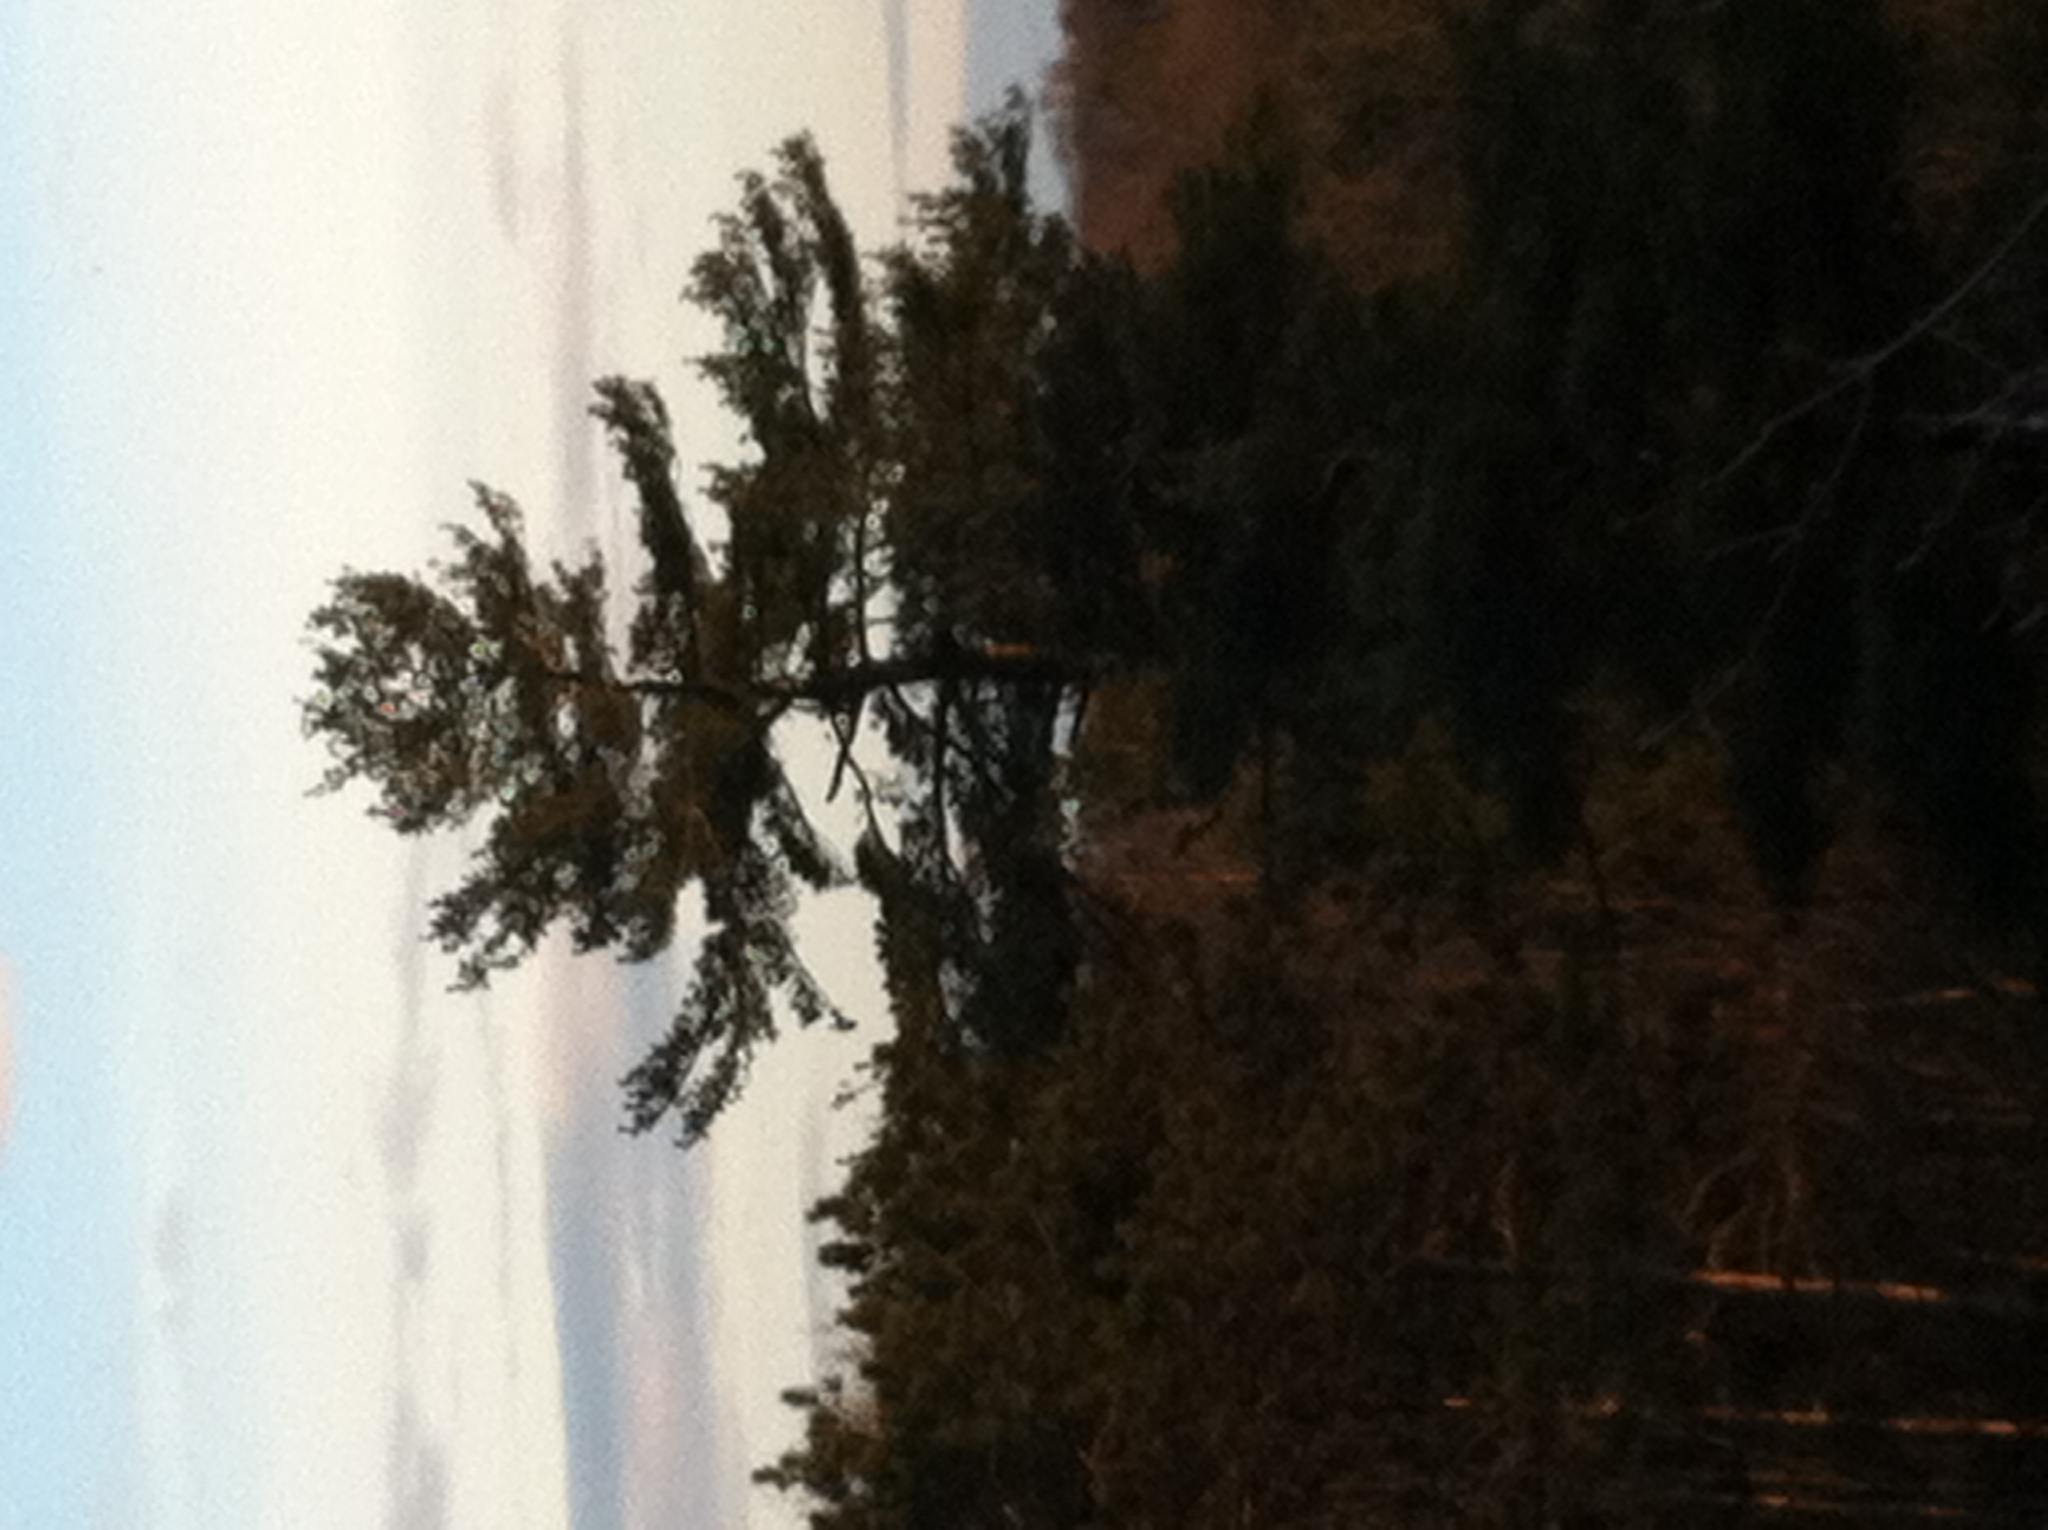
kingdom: Plantae
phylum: Tracheophyta
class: Pinopsida
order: Pinales
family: Pinaceae
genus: Pinus
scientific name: Pinus strobus
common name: Weymouth pine
